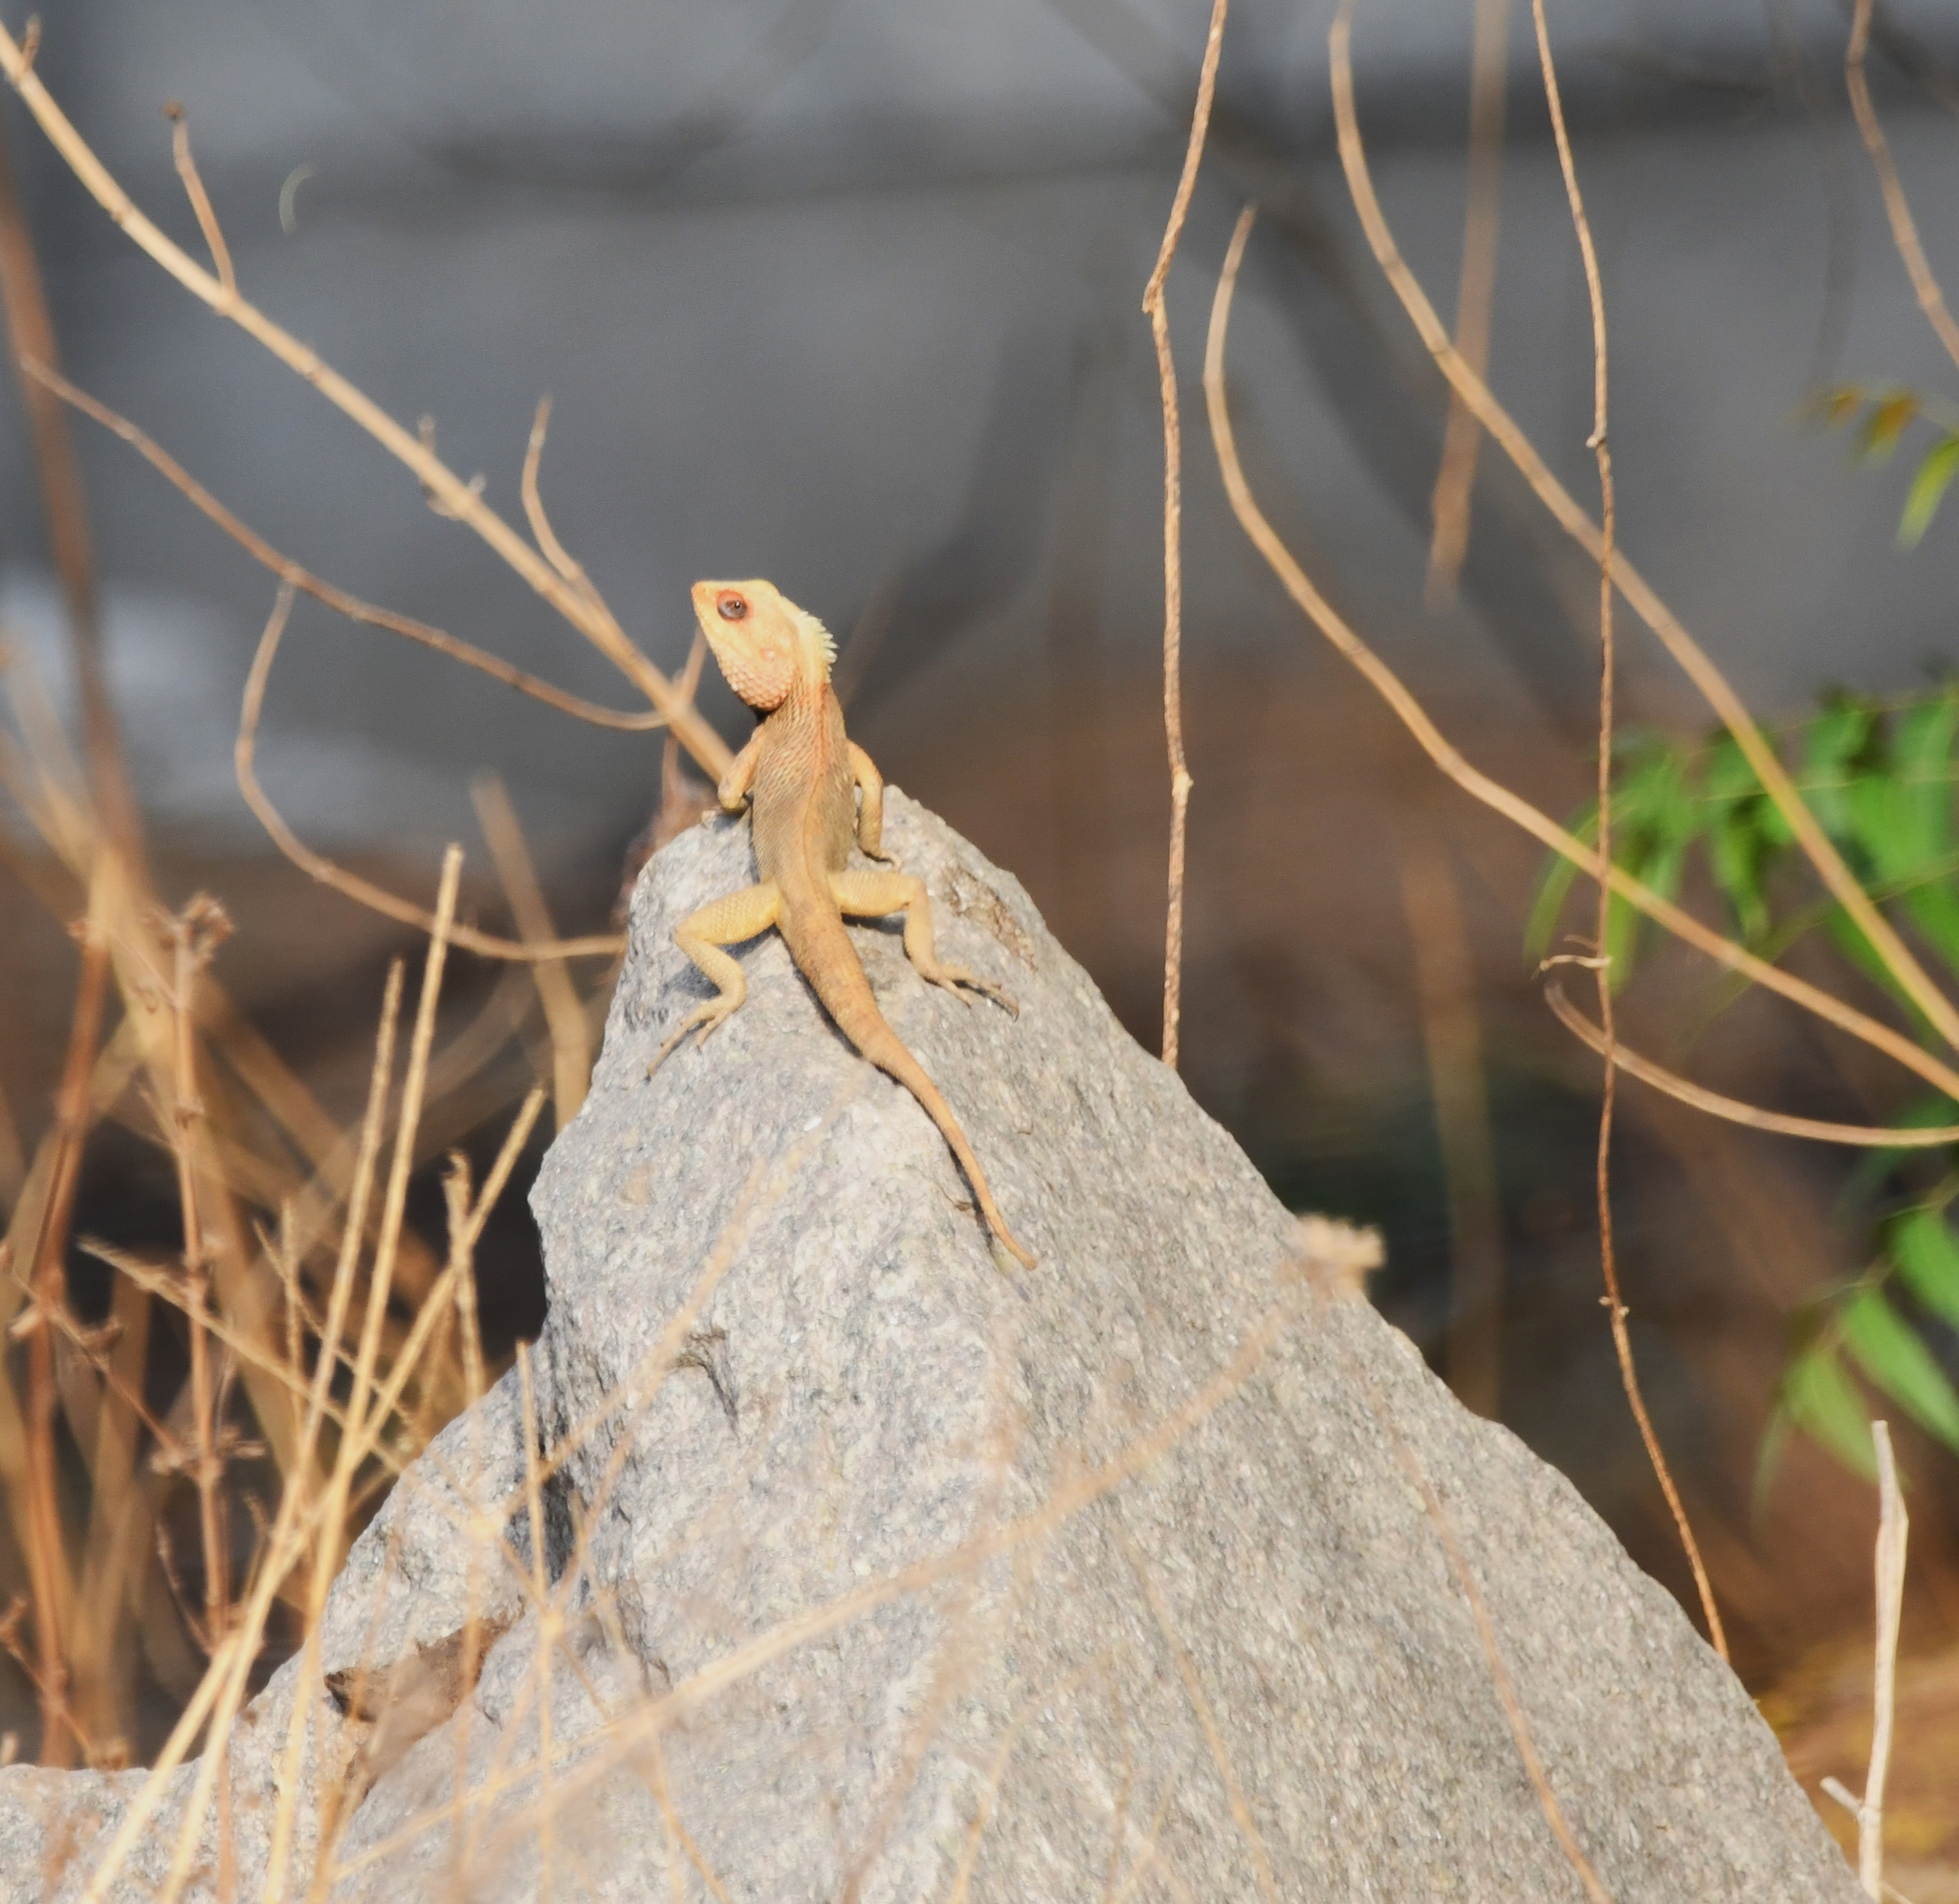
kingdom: Animalia
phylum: Chordata
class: Squamata
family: Agamidae
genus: Calotes
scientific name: Calotes versicolor
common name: Oriental garden lizard
